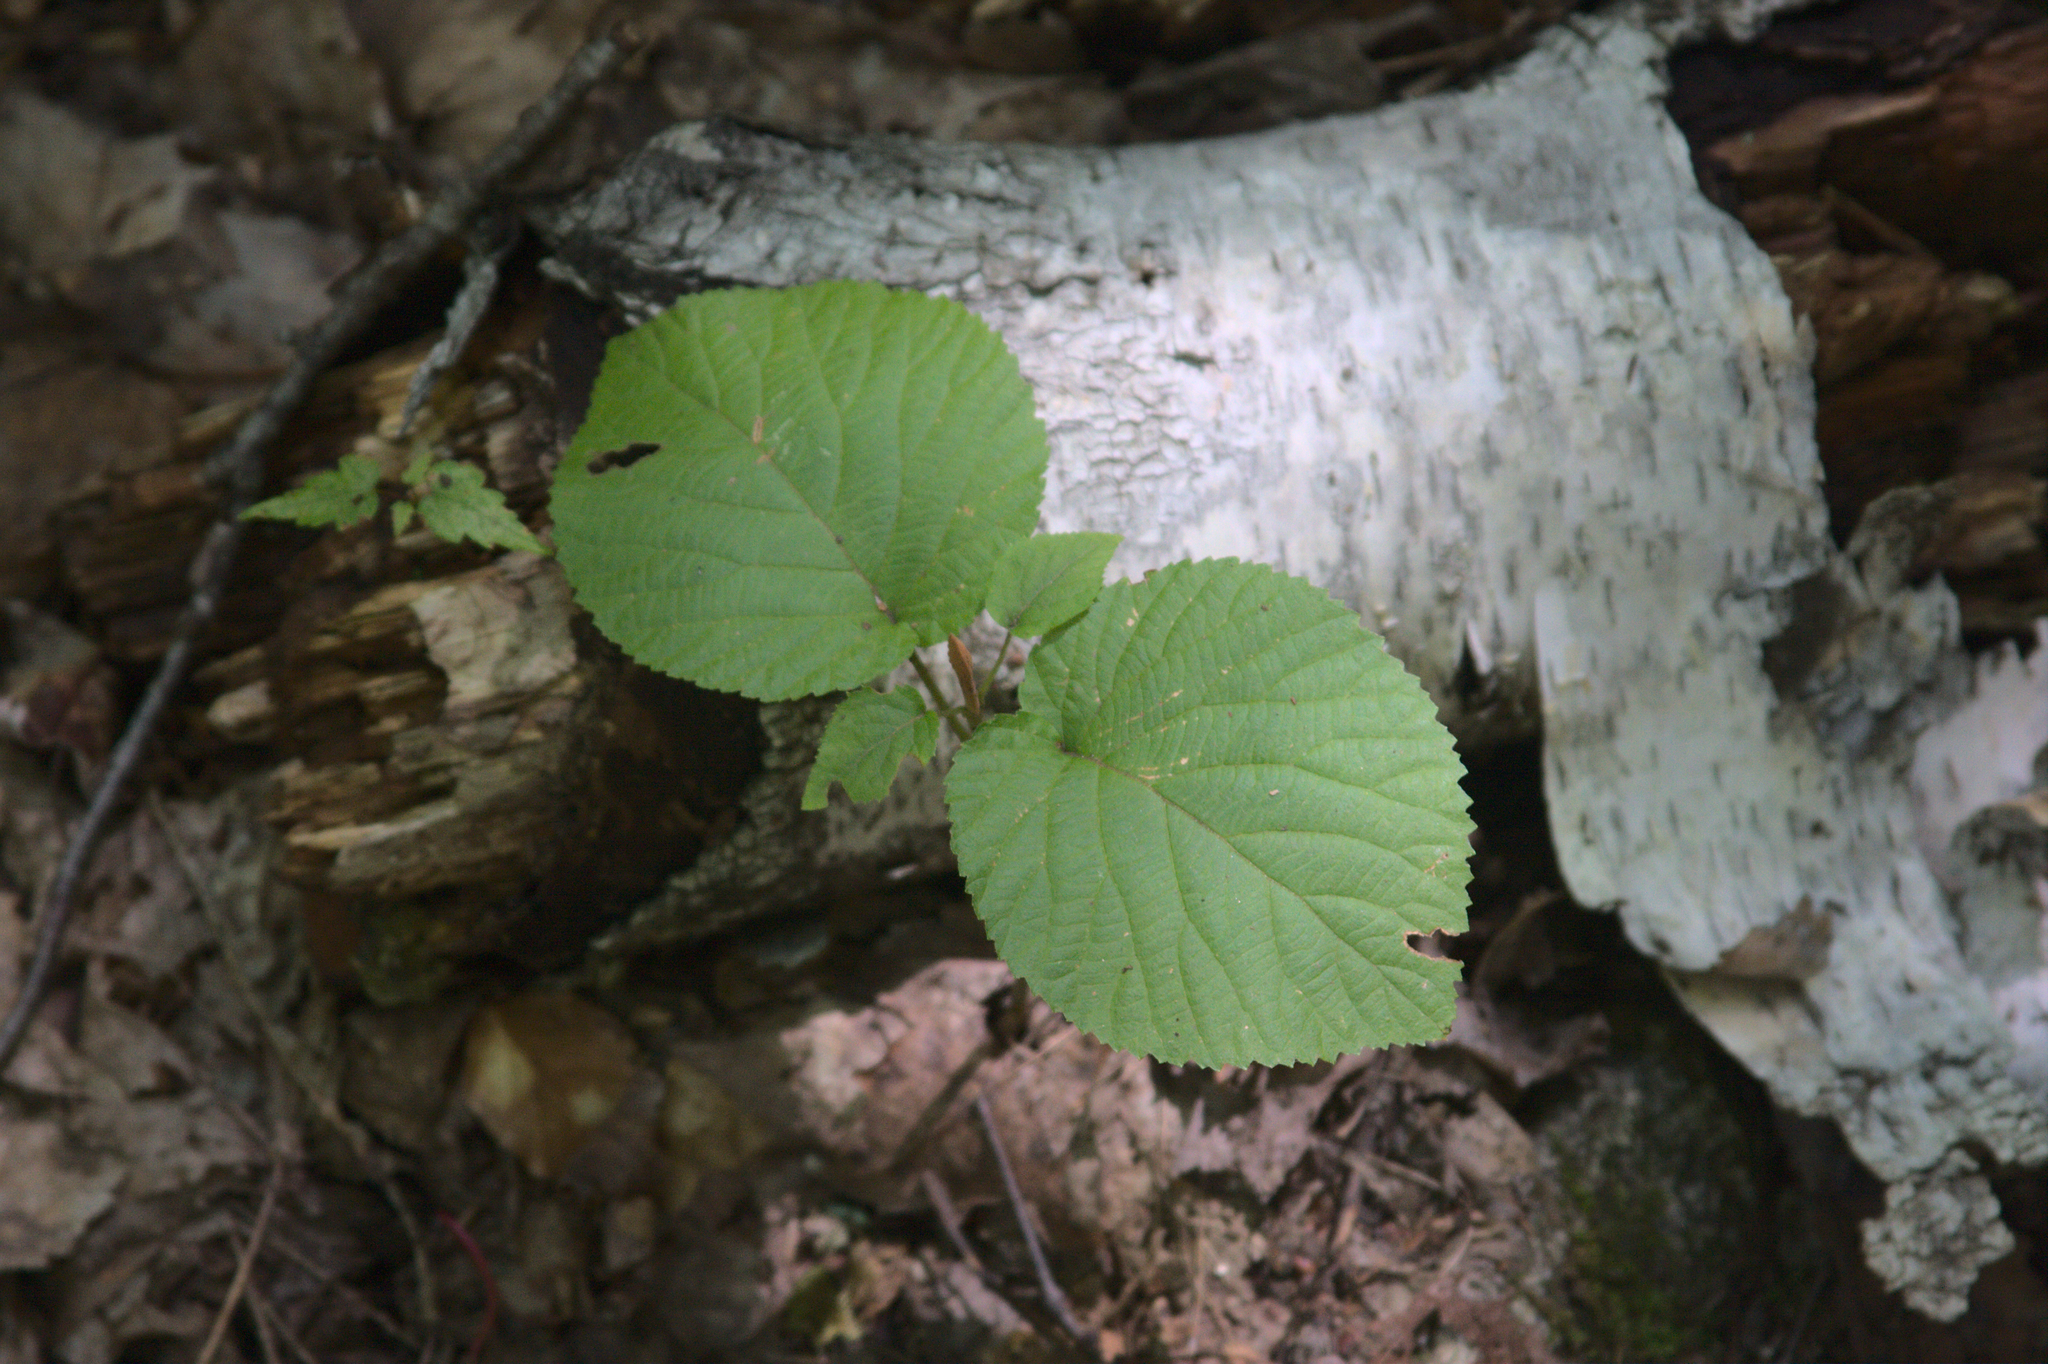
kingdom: Plantae
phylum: Tracheophyta
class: Magnoliopsida
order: Dipsacales
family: Viburnaceae
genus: Viburnum
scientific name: Viburnum lantanoides
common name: Hobblebush
